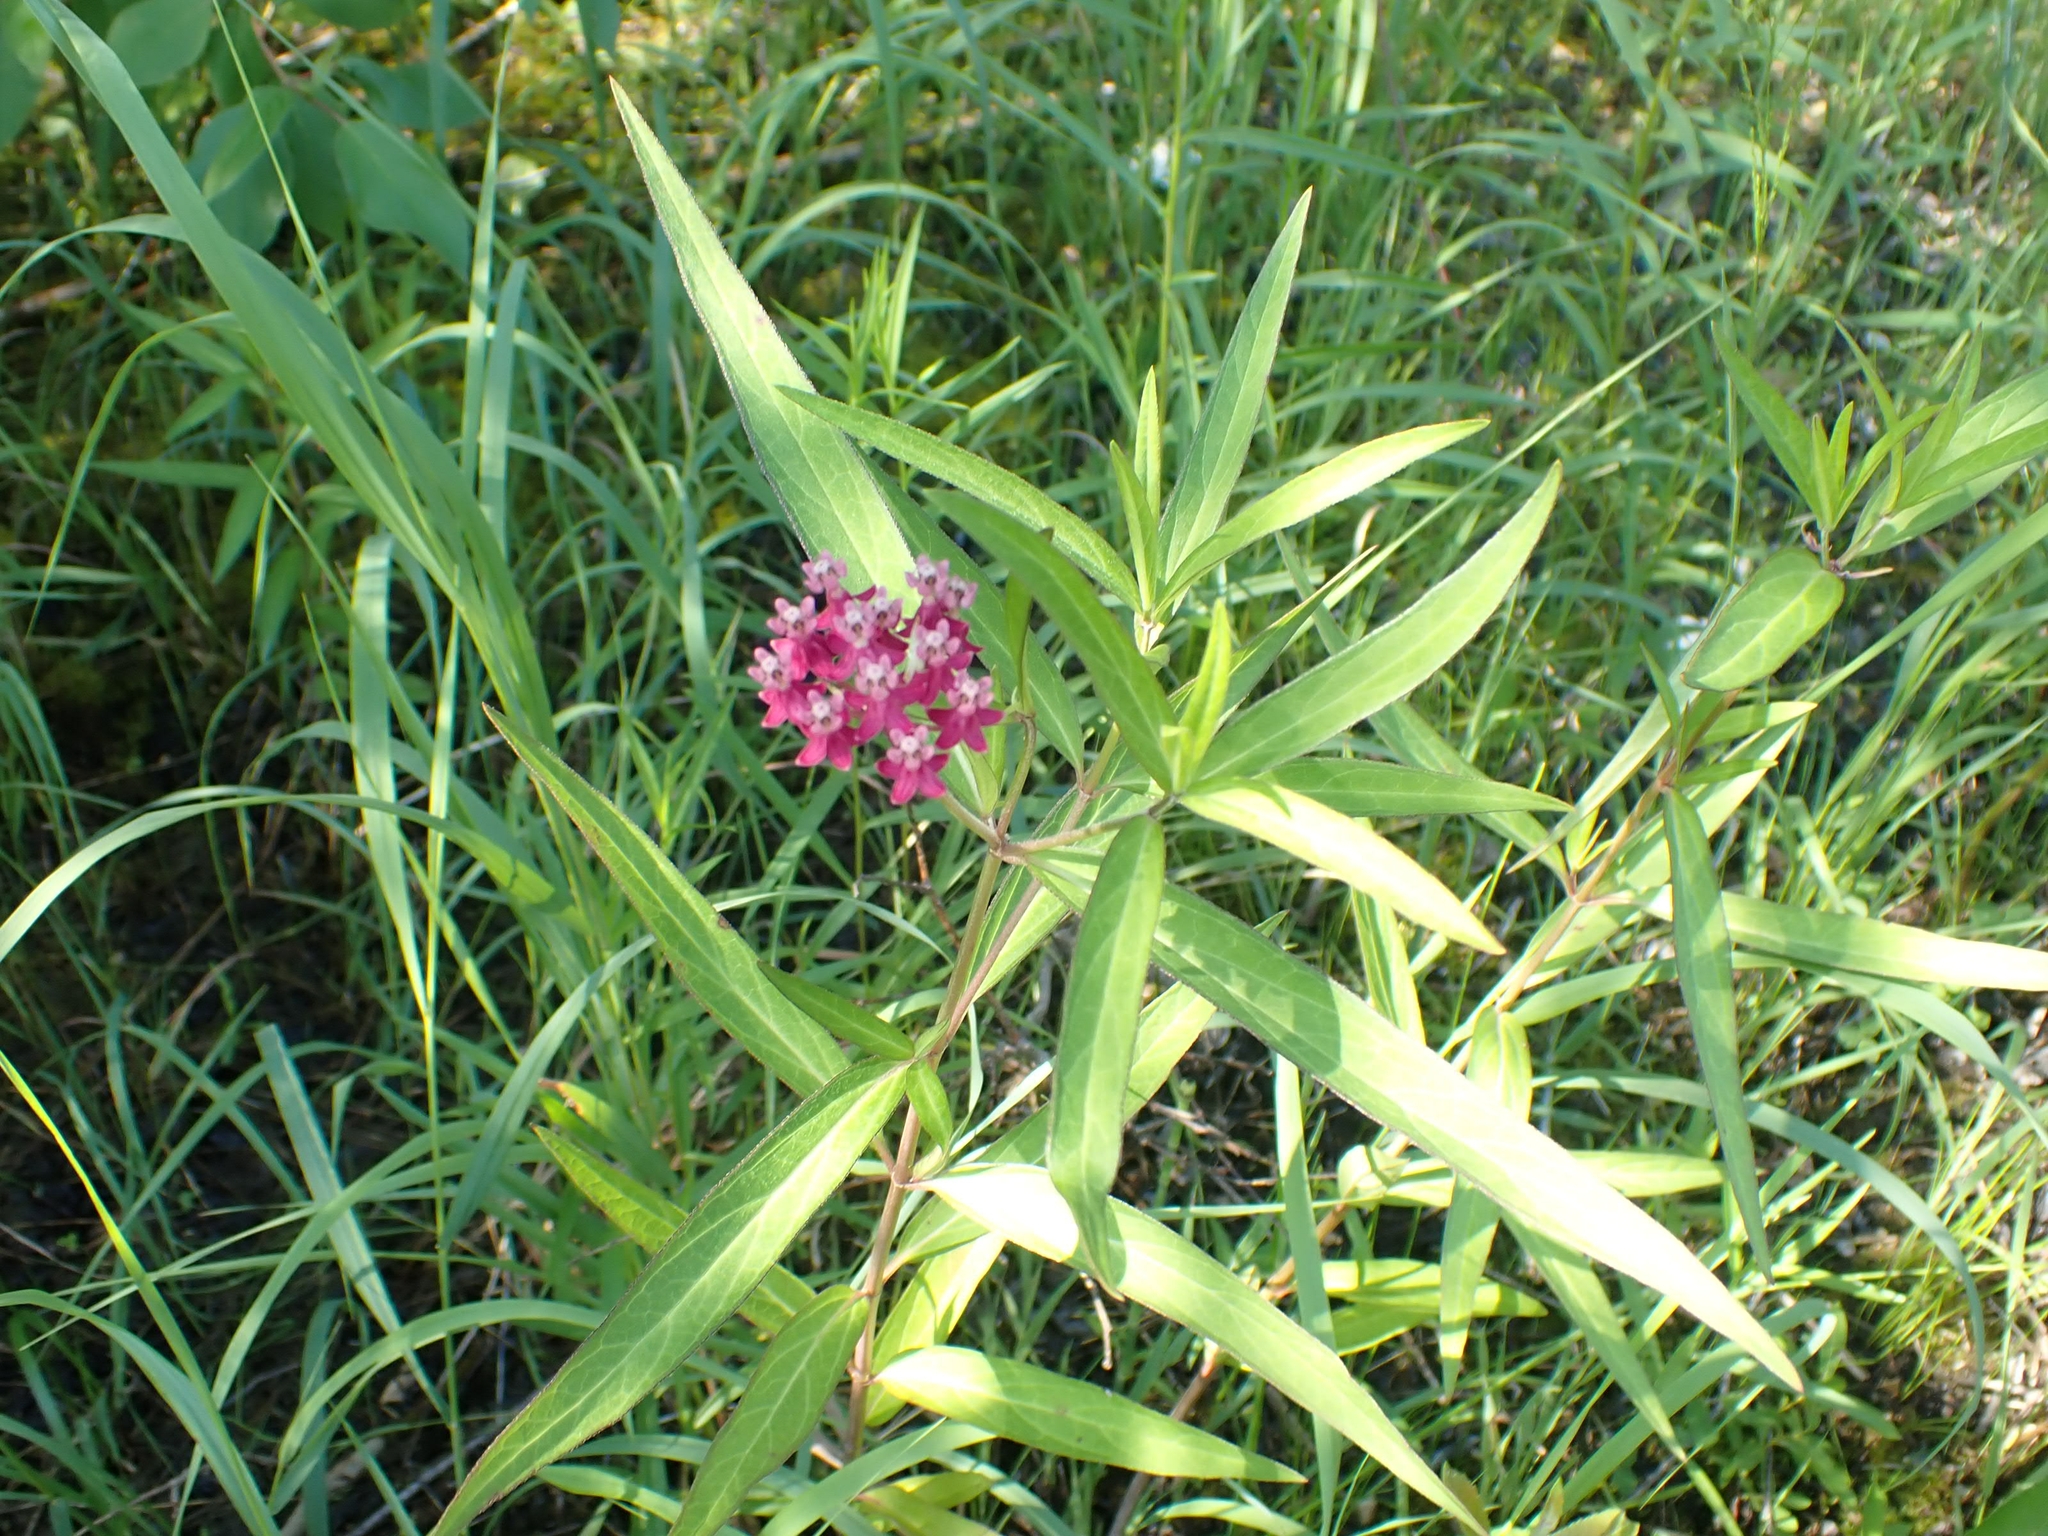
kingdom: Plantae
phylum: Tracheophyta
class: Magnoliopsida
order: Gentianales
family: Apocynaceae
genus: Asclepias
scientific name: Asclepias incarnata
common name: Swamp milkweed
